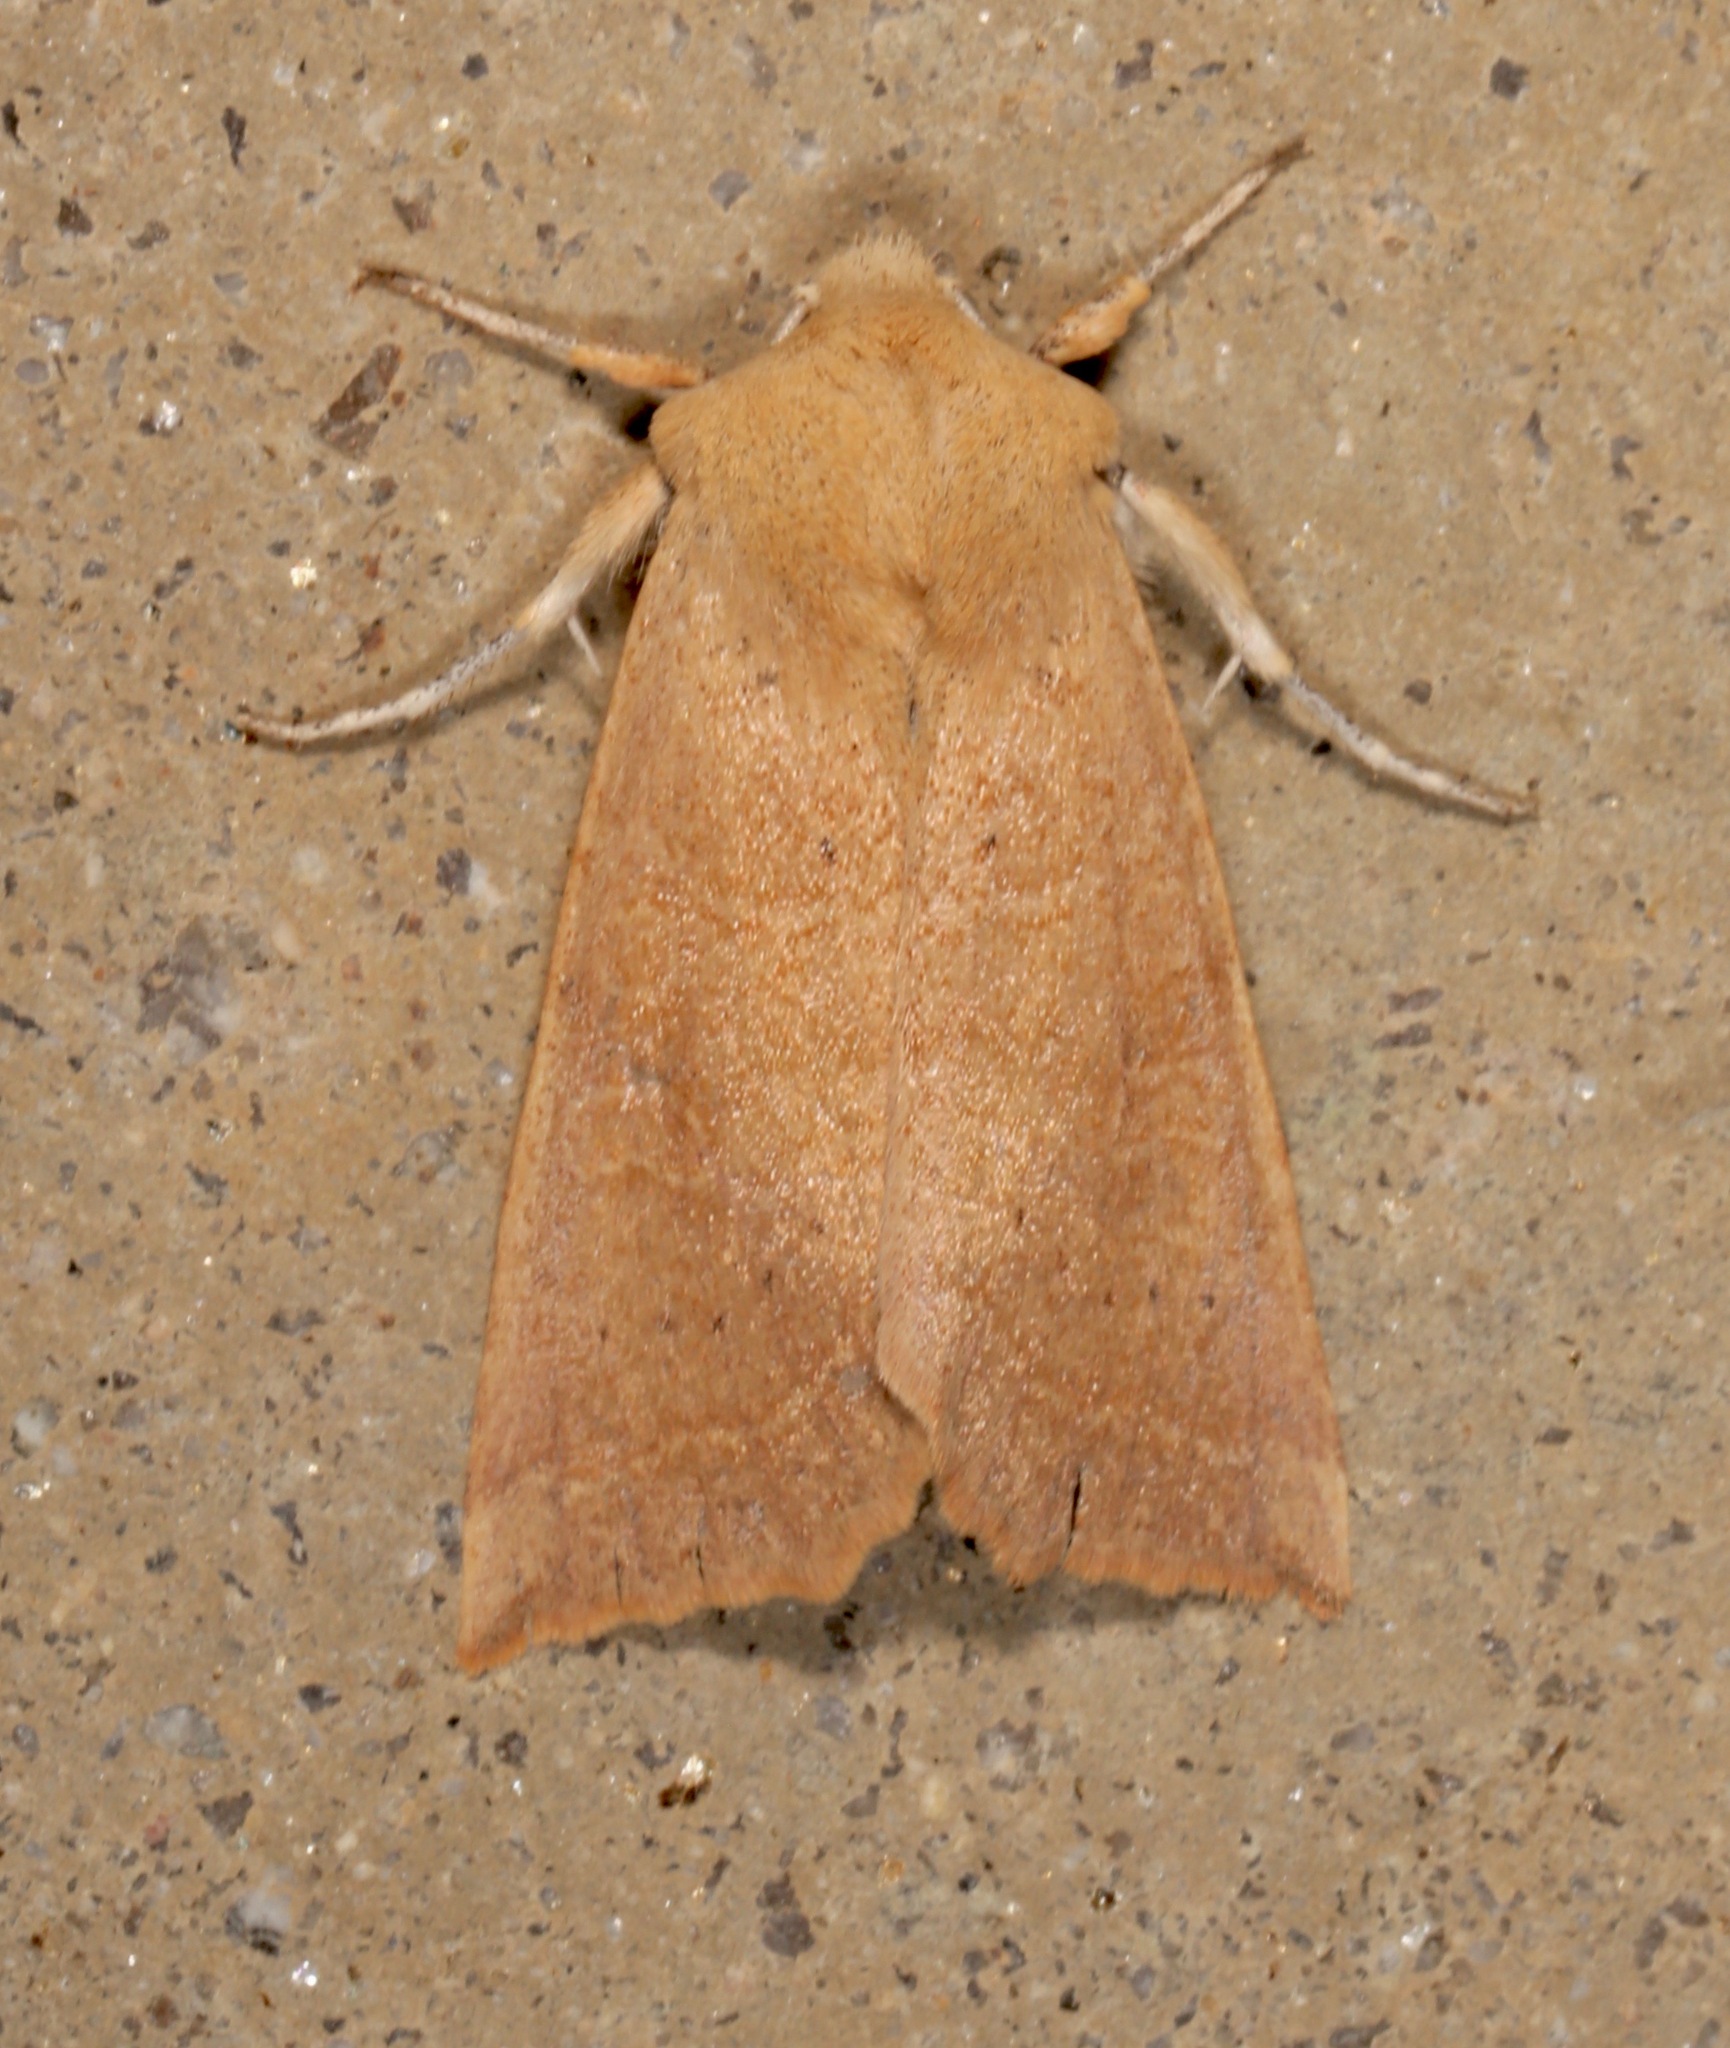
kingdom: Animalia
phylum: Arthropoda
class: Insecta
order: Lepidoptera
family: Noctuidae
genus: Perigonica
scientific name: Perigonica fulminans
